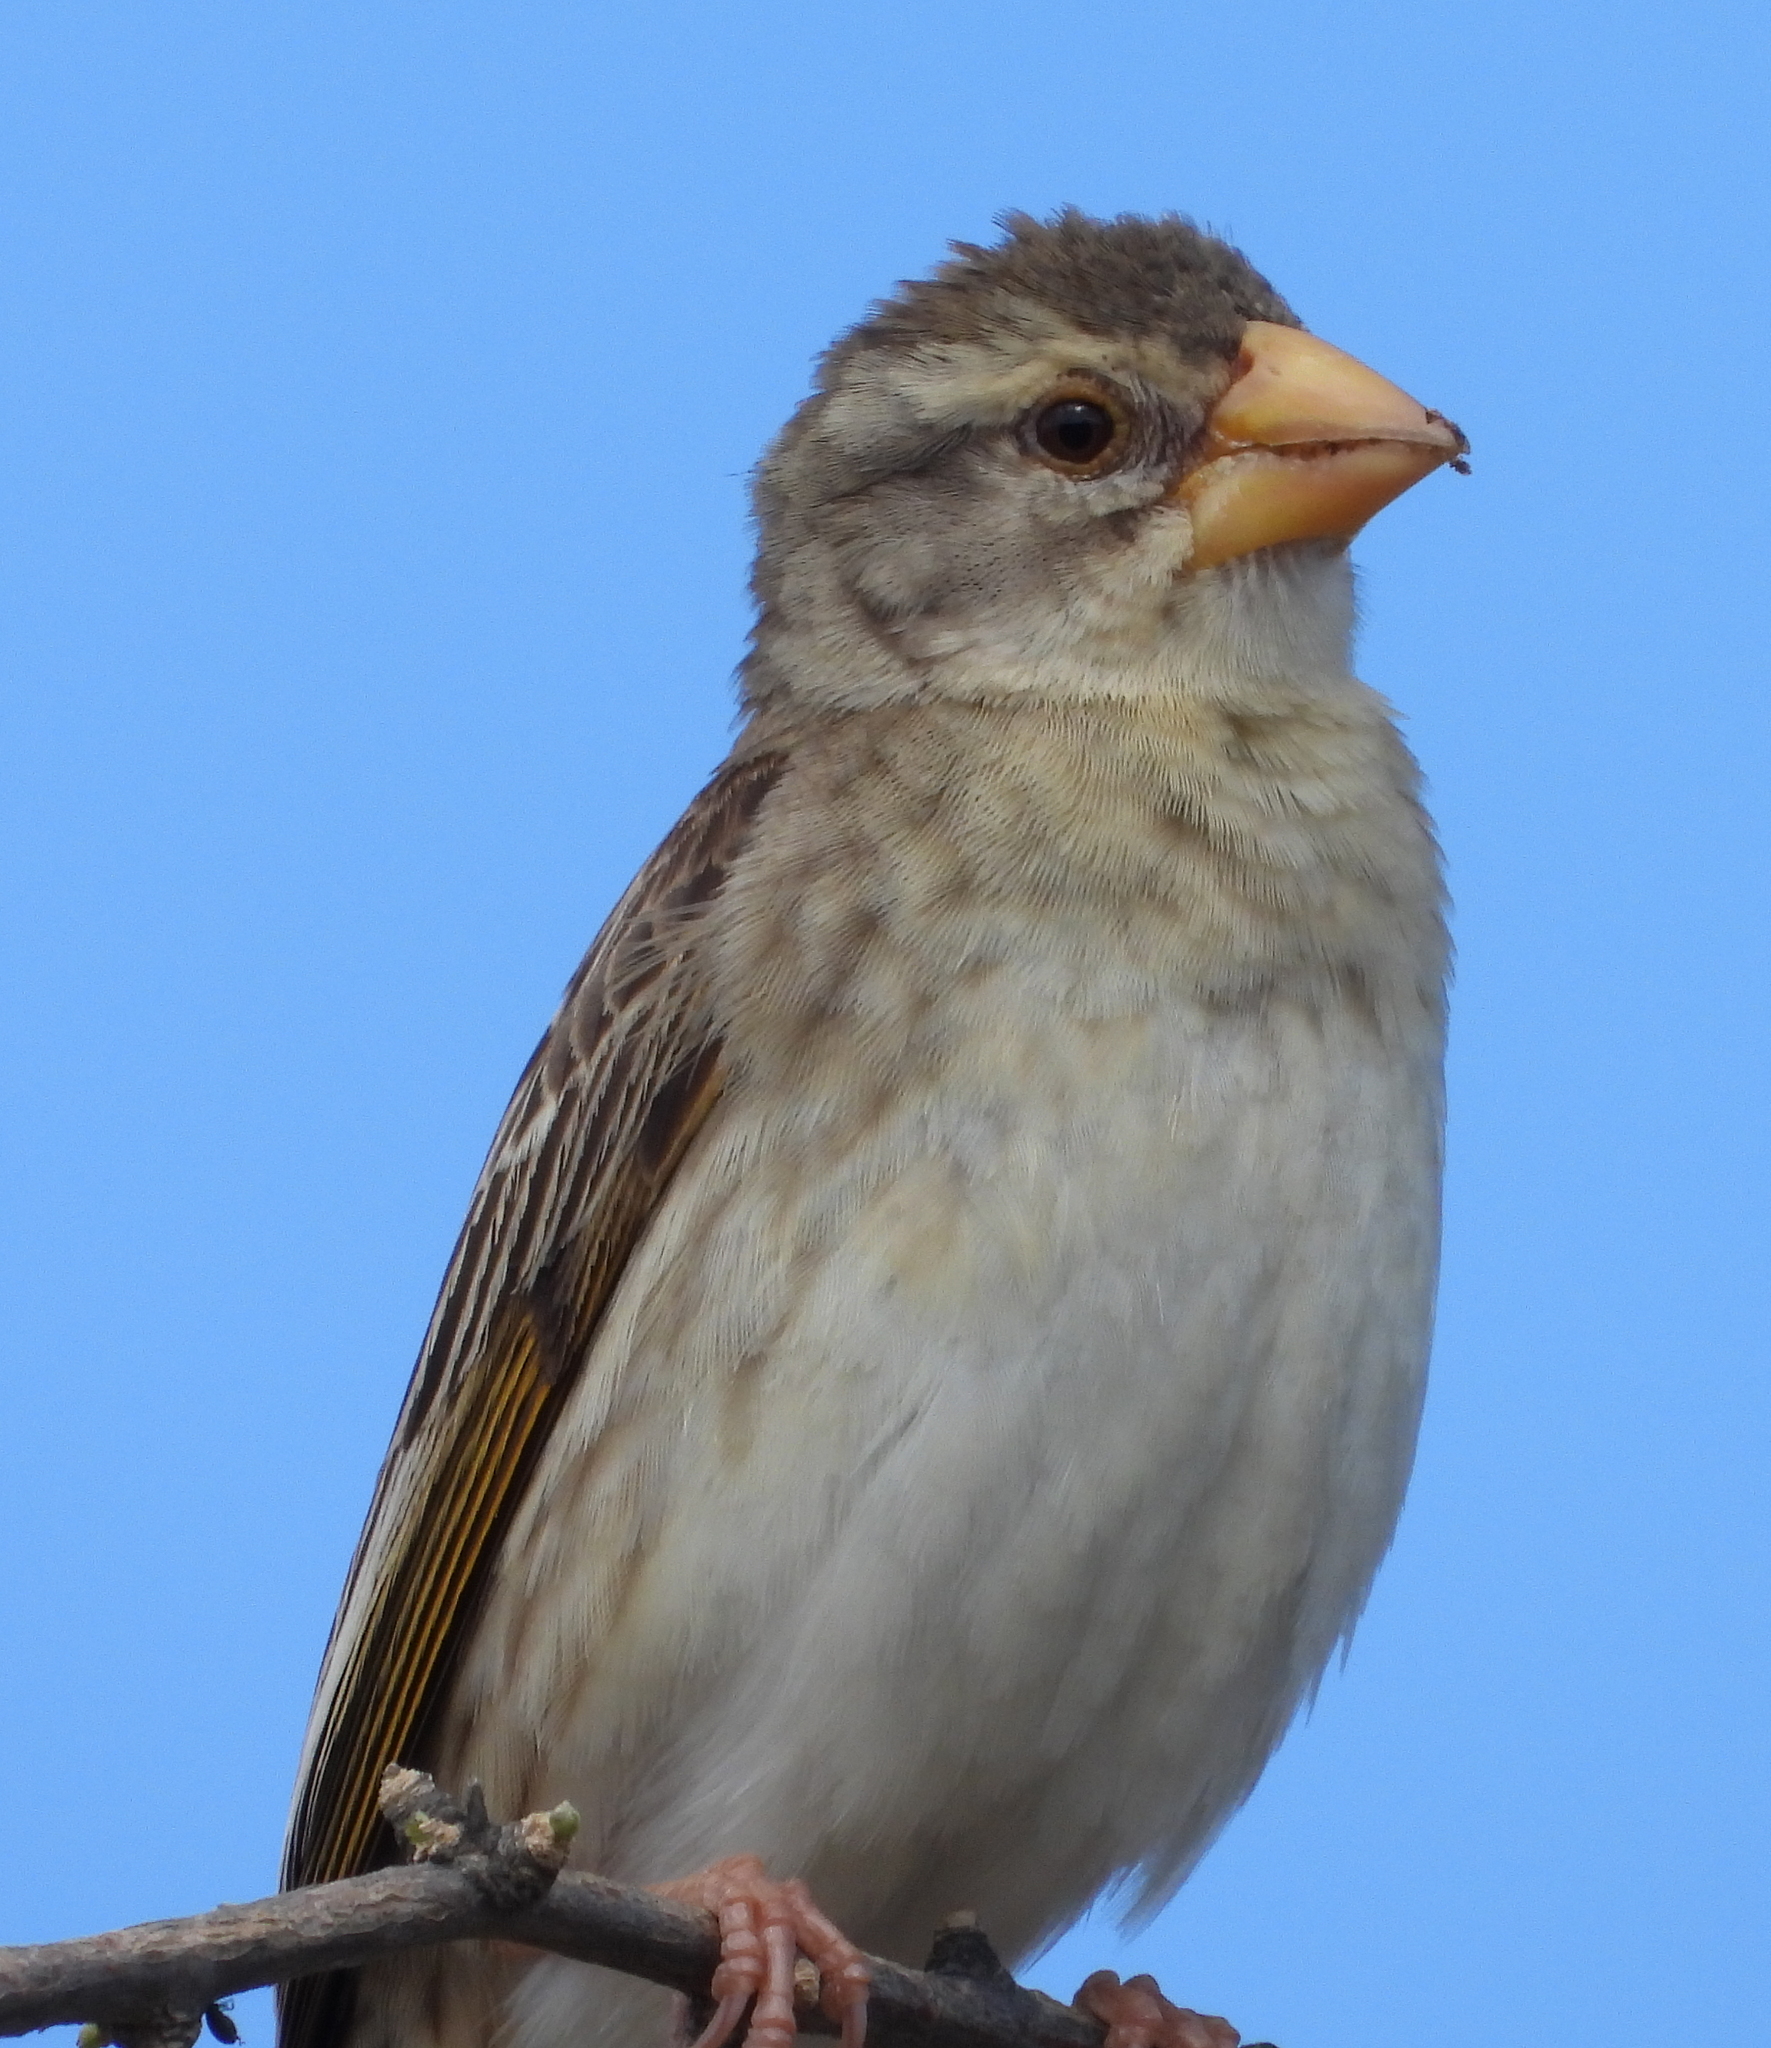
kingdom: Animalia
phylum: Chordata
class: Aves
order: Passeriformes
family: Ploceidae
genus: Quelea
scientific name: Quelea quelea
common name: Red-billed quelea
